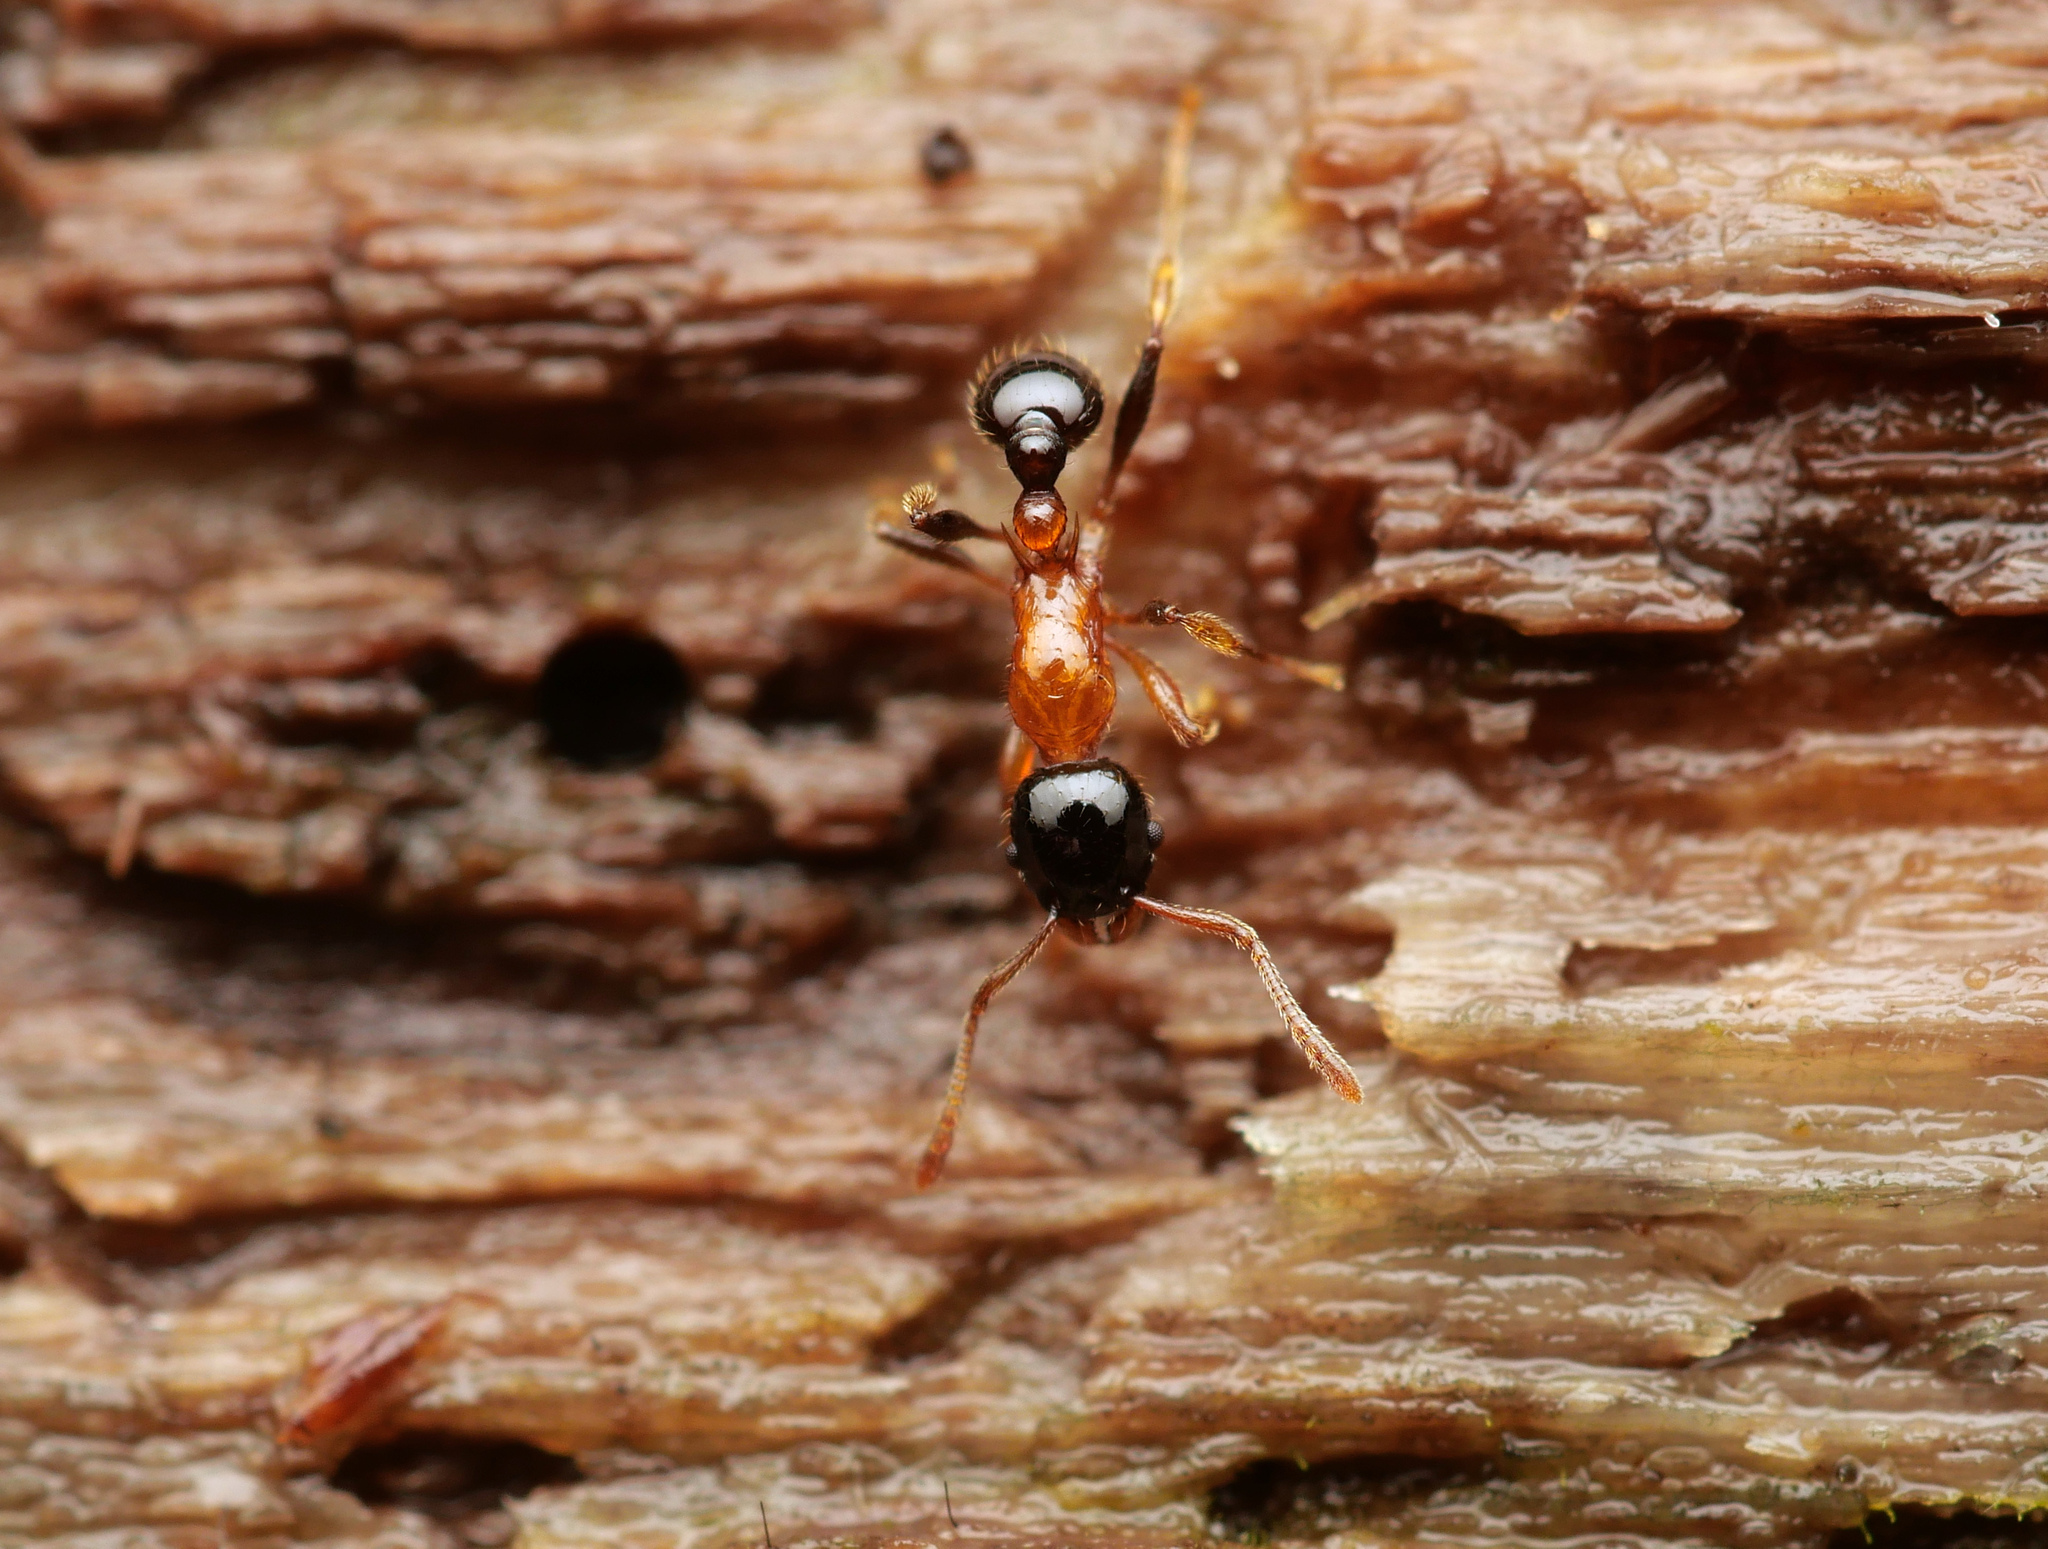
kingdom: Animalia
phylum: Arthropoda
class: Insecta
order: Hymenoptera
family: Formicidae
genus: Tetramorium
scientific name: Tetramorium
